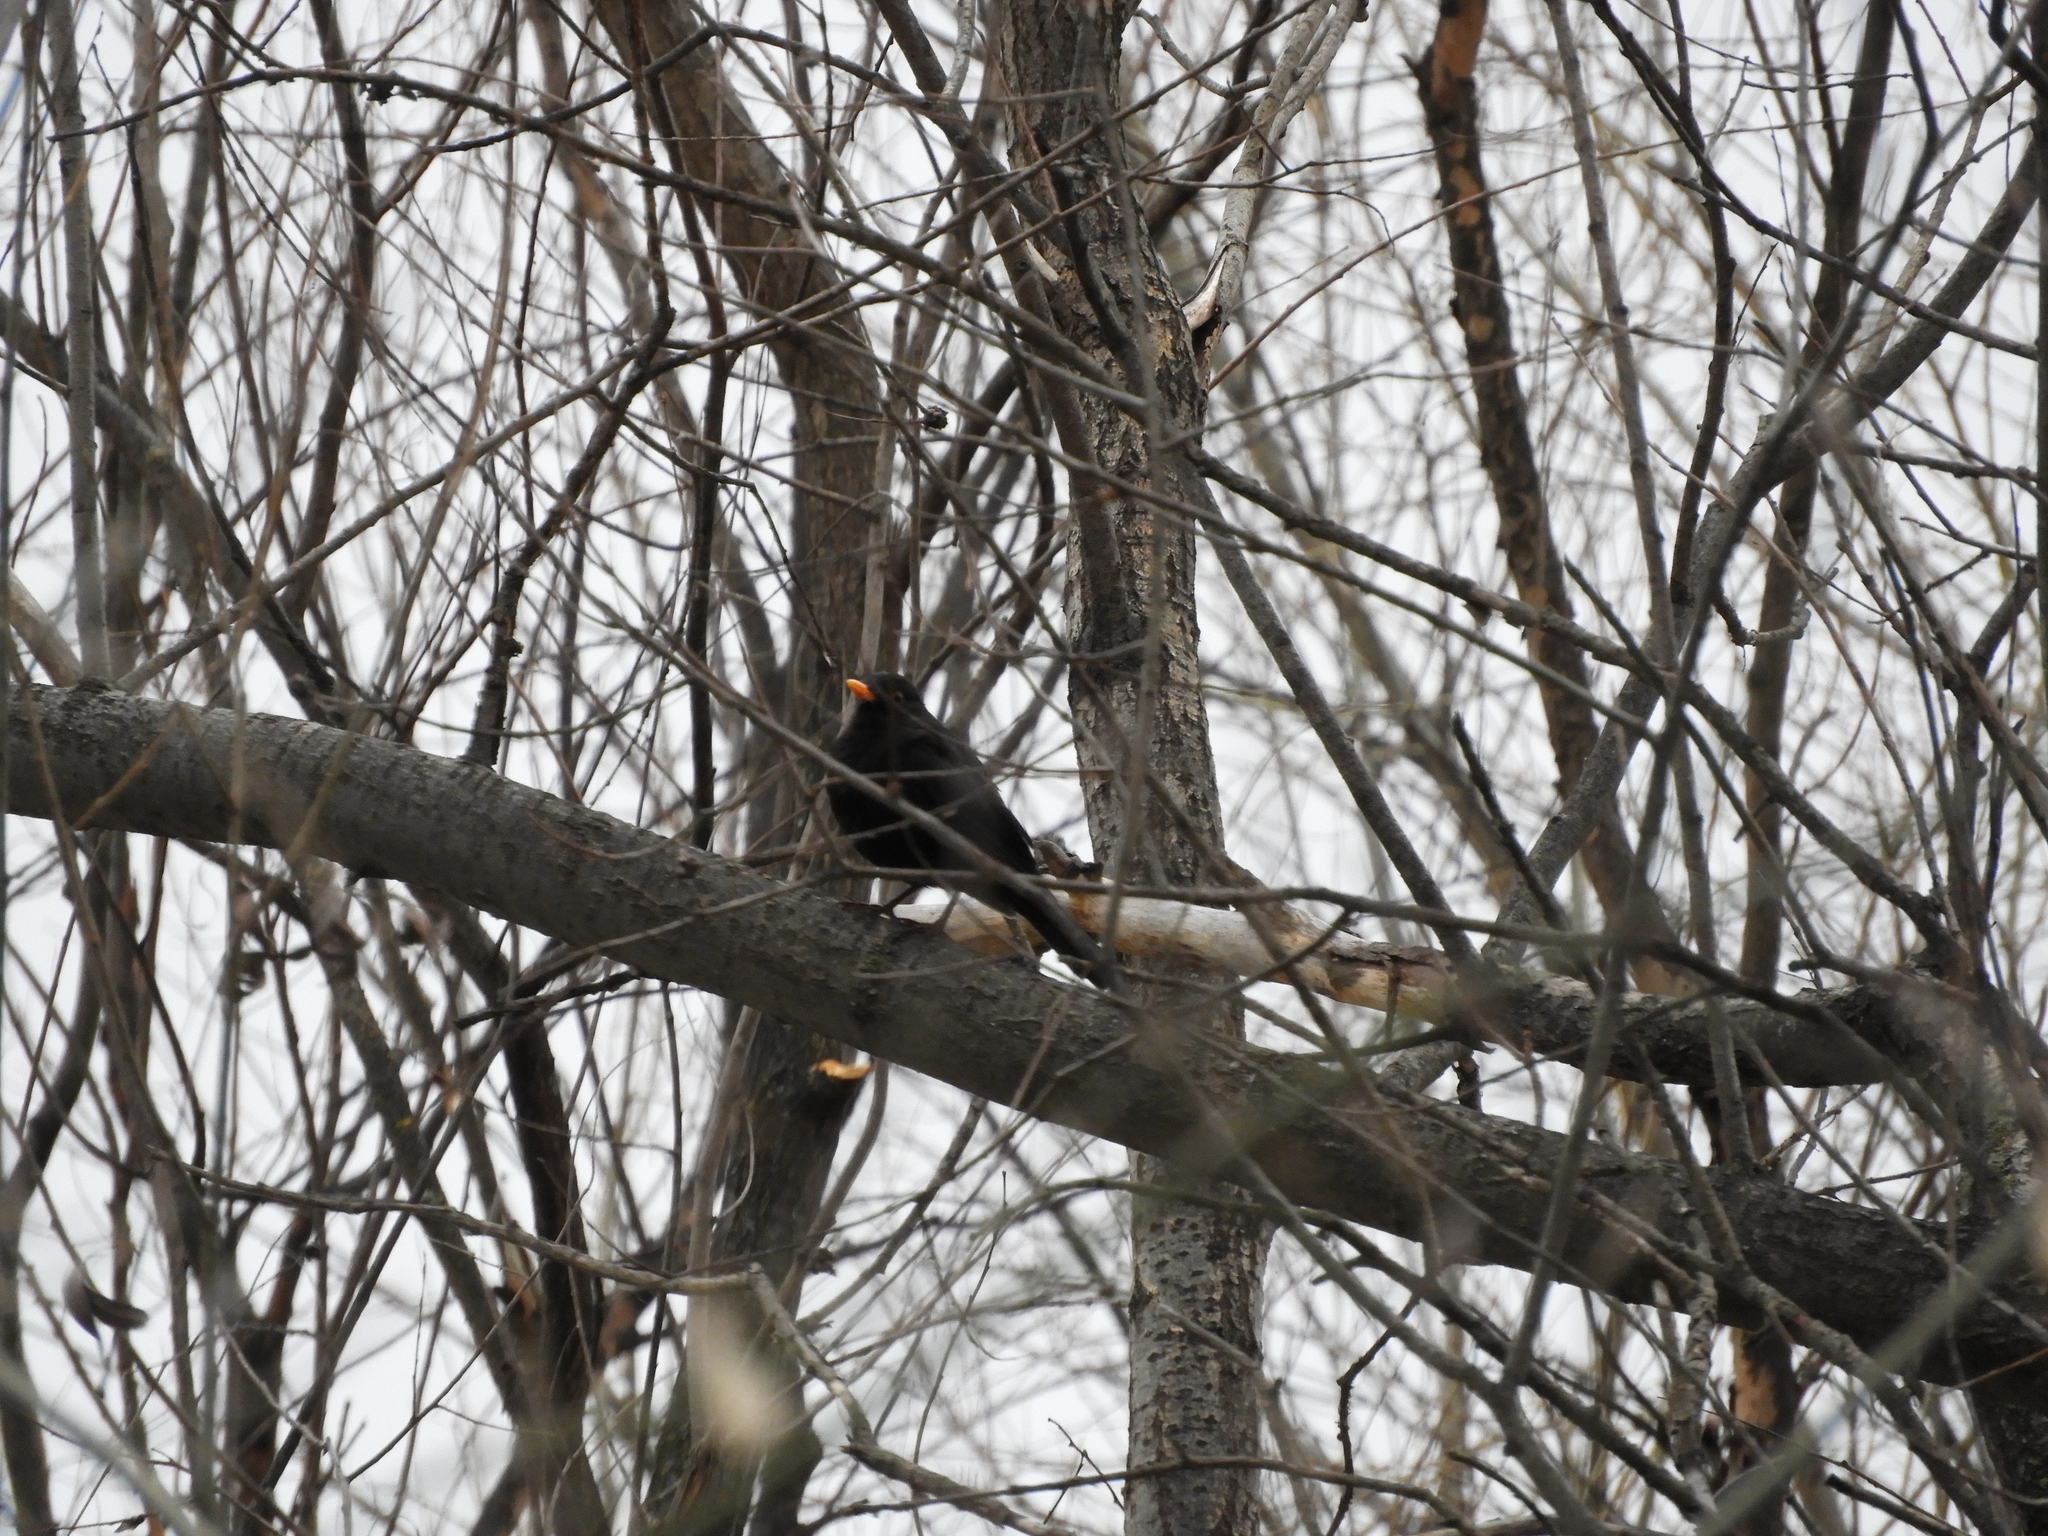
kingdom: Animalia
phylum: Chordata
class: Aves
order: Passeriformes
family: Turdidae
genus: Turdus
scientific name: Turdus merula
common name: Common blackbird
